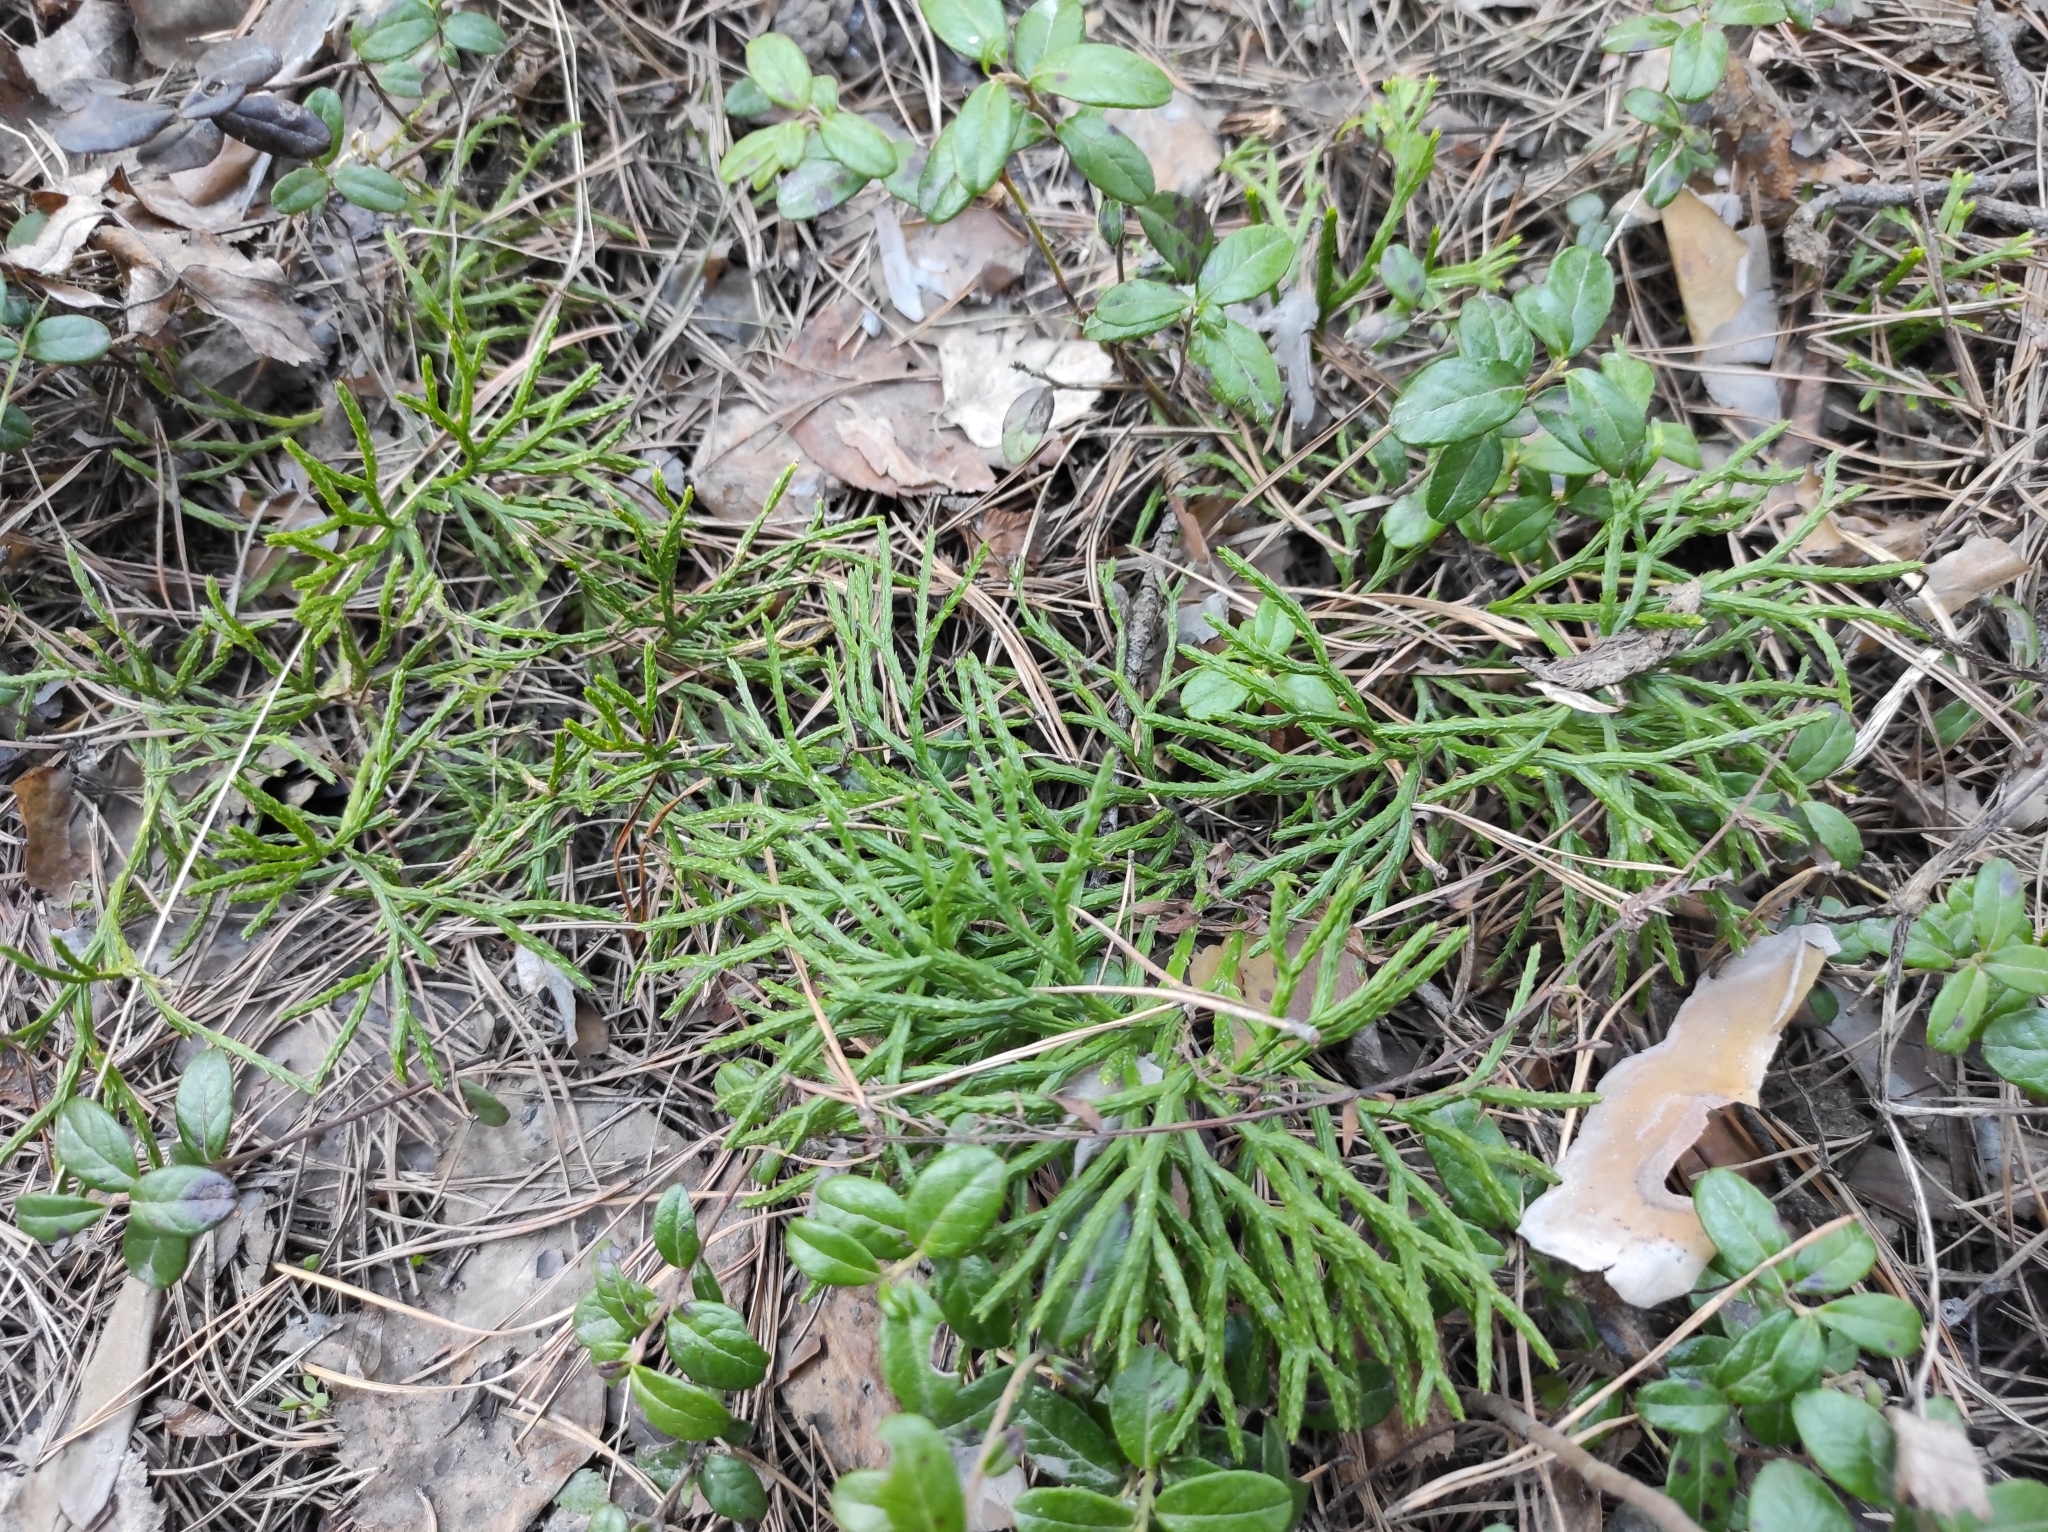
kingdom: Plantae
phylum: Tracheophyta
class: Magnoliopsida
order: Ericales
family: Ericaceae
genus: Vaccinium
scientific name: Vaccinium vitis-idaea
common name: Cowberry
